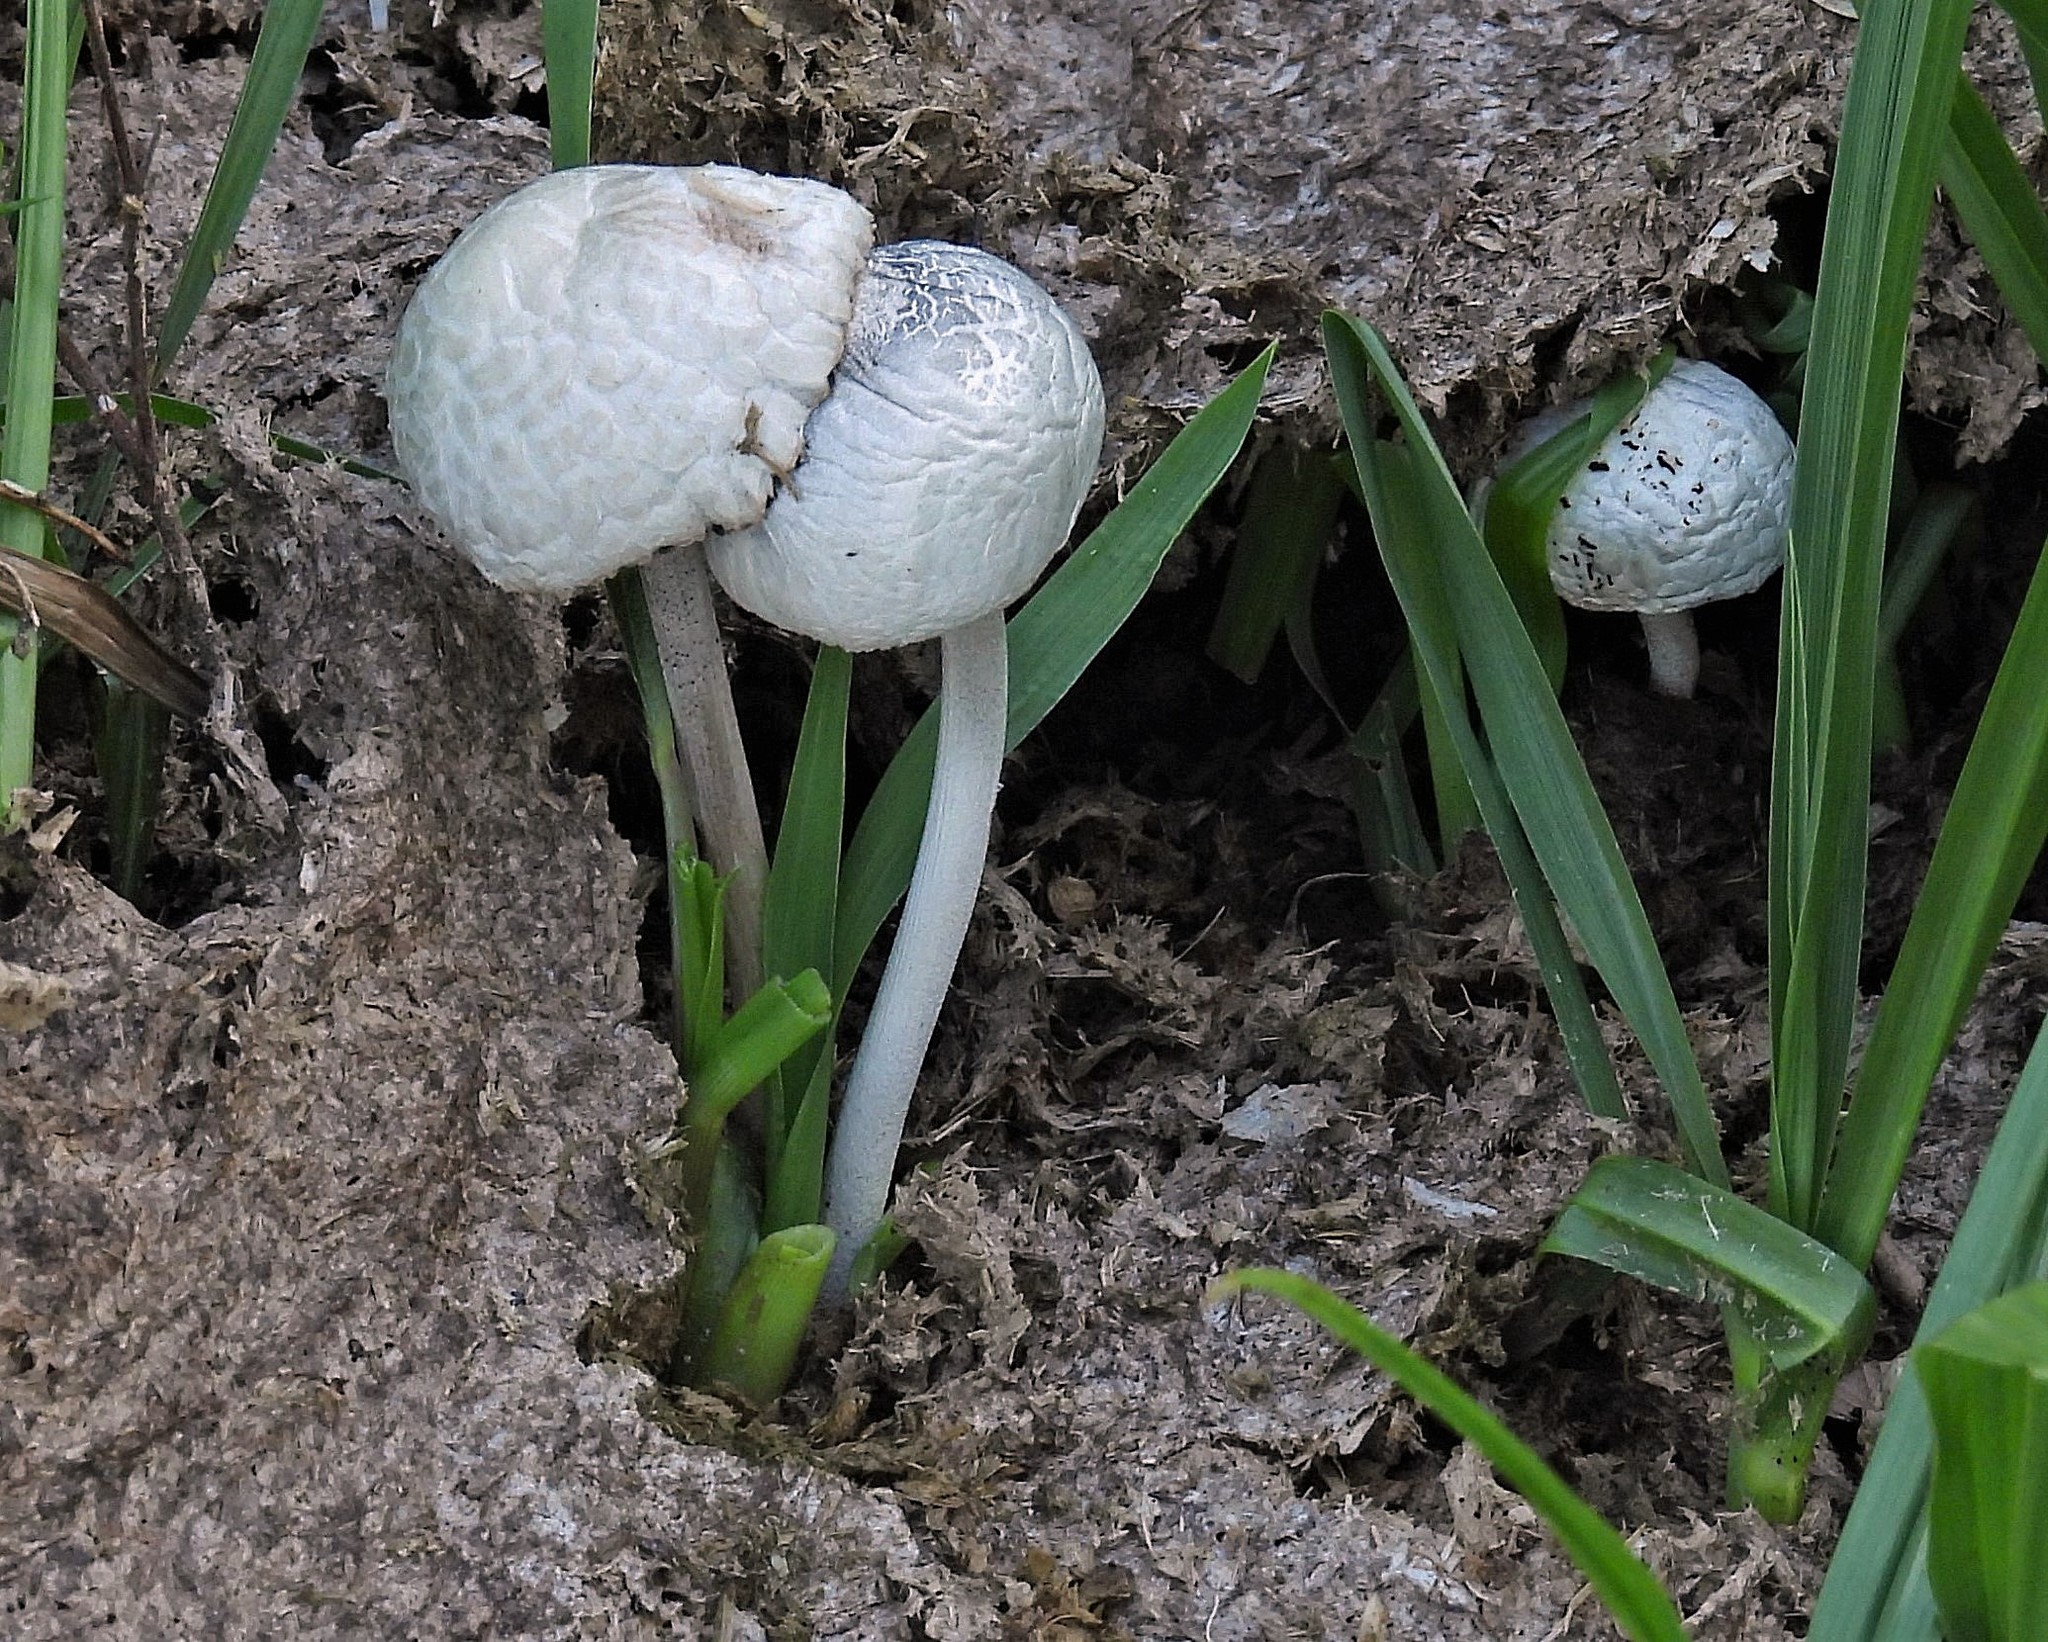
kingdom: Fungi
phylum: Basidiomycota
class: Agaricomycetes
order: Agaricales
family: Bolbitiaceae
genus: Panaeolus
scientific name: Panaeolus antillarum
